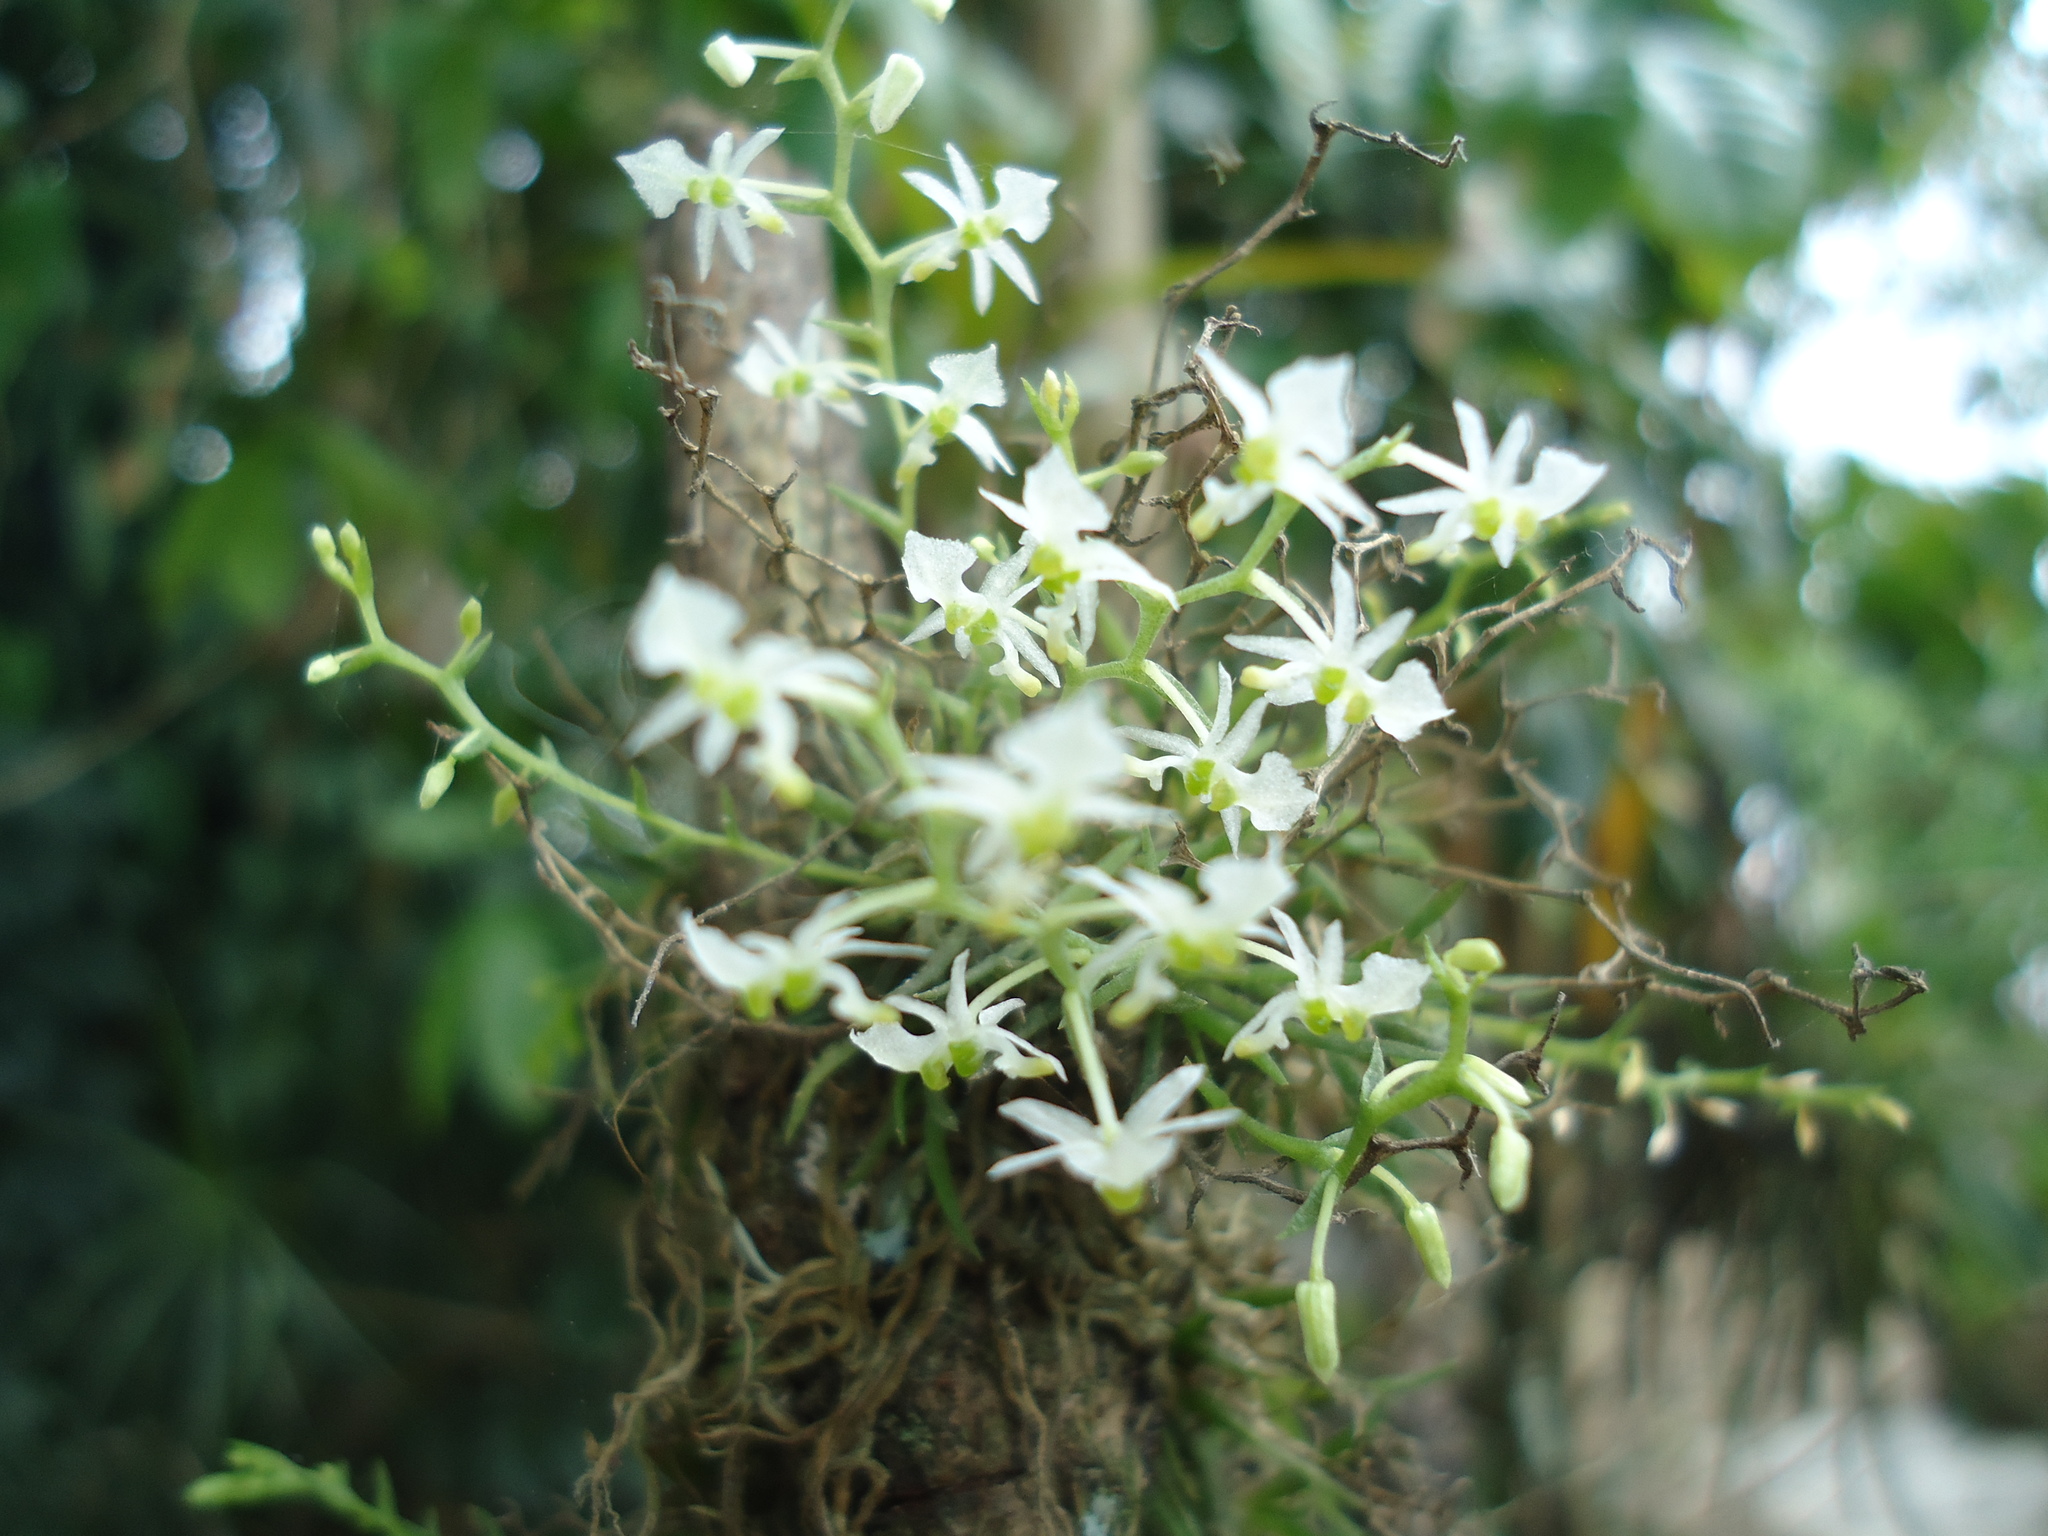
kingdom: Plantae
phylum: Tracheophyta
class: Liliopsida
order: Asparagales
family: Orchidaceae
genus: Phymatidium
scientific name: Phymatidium delicatulum
